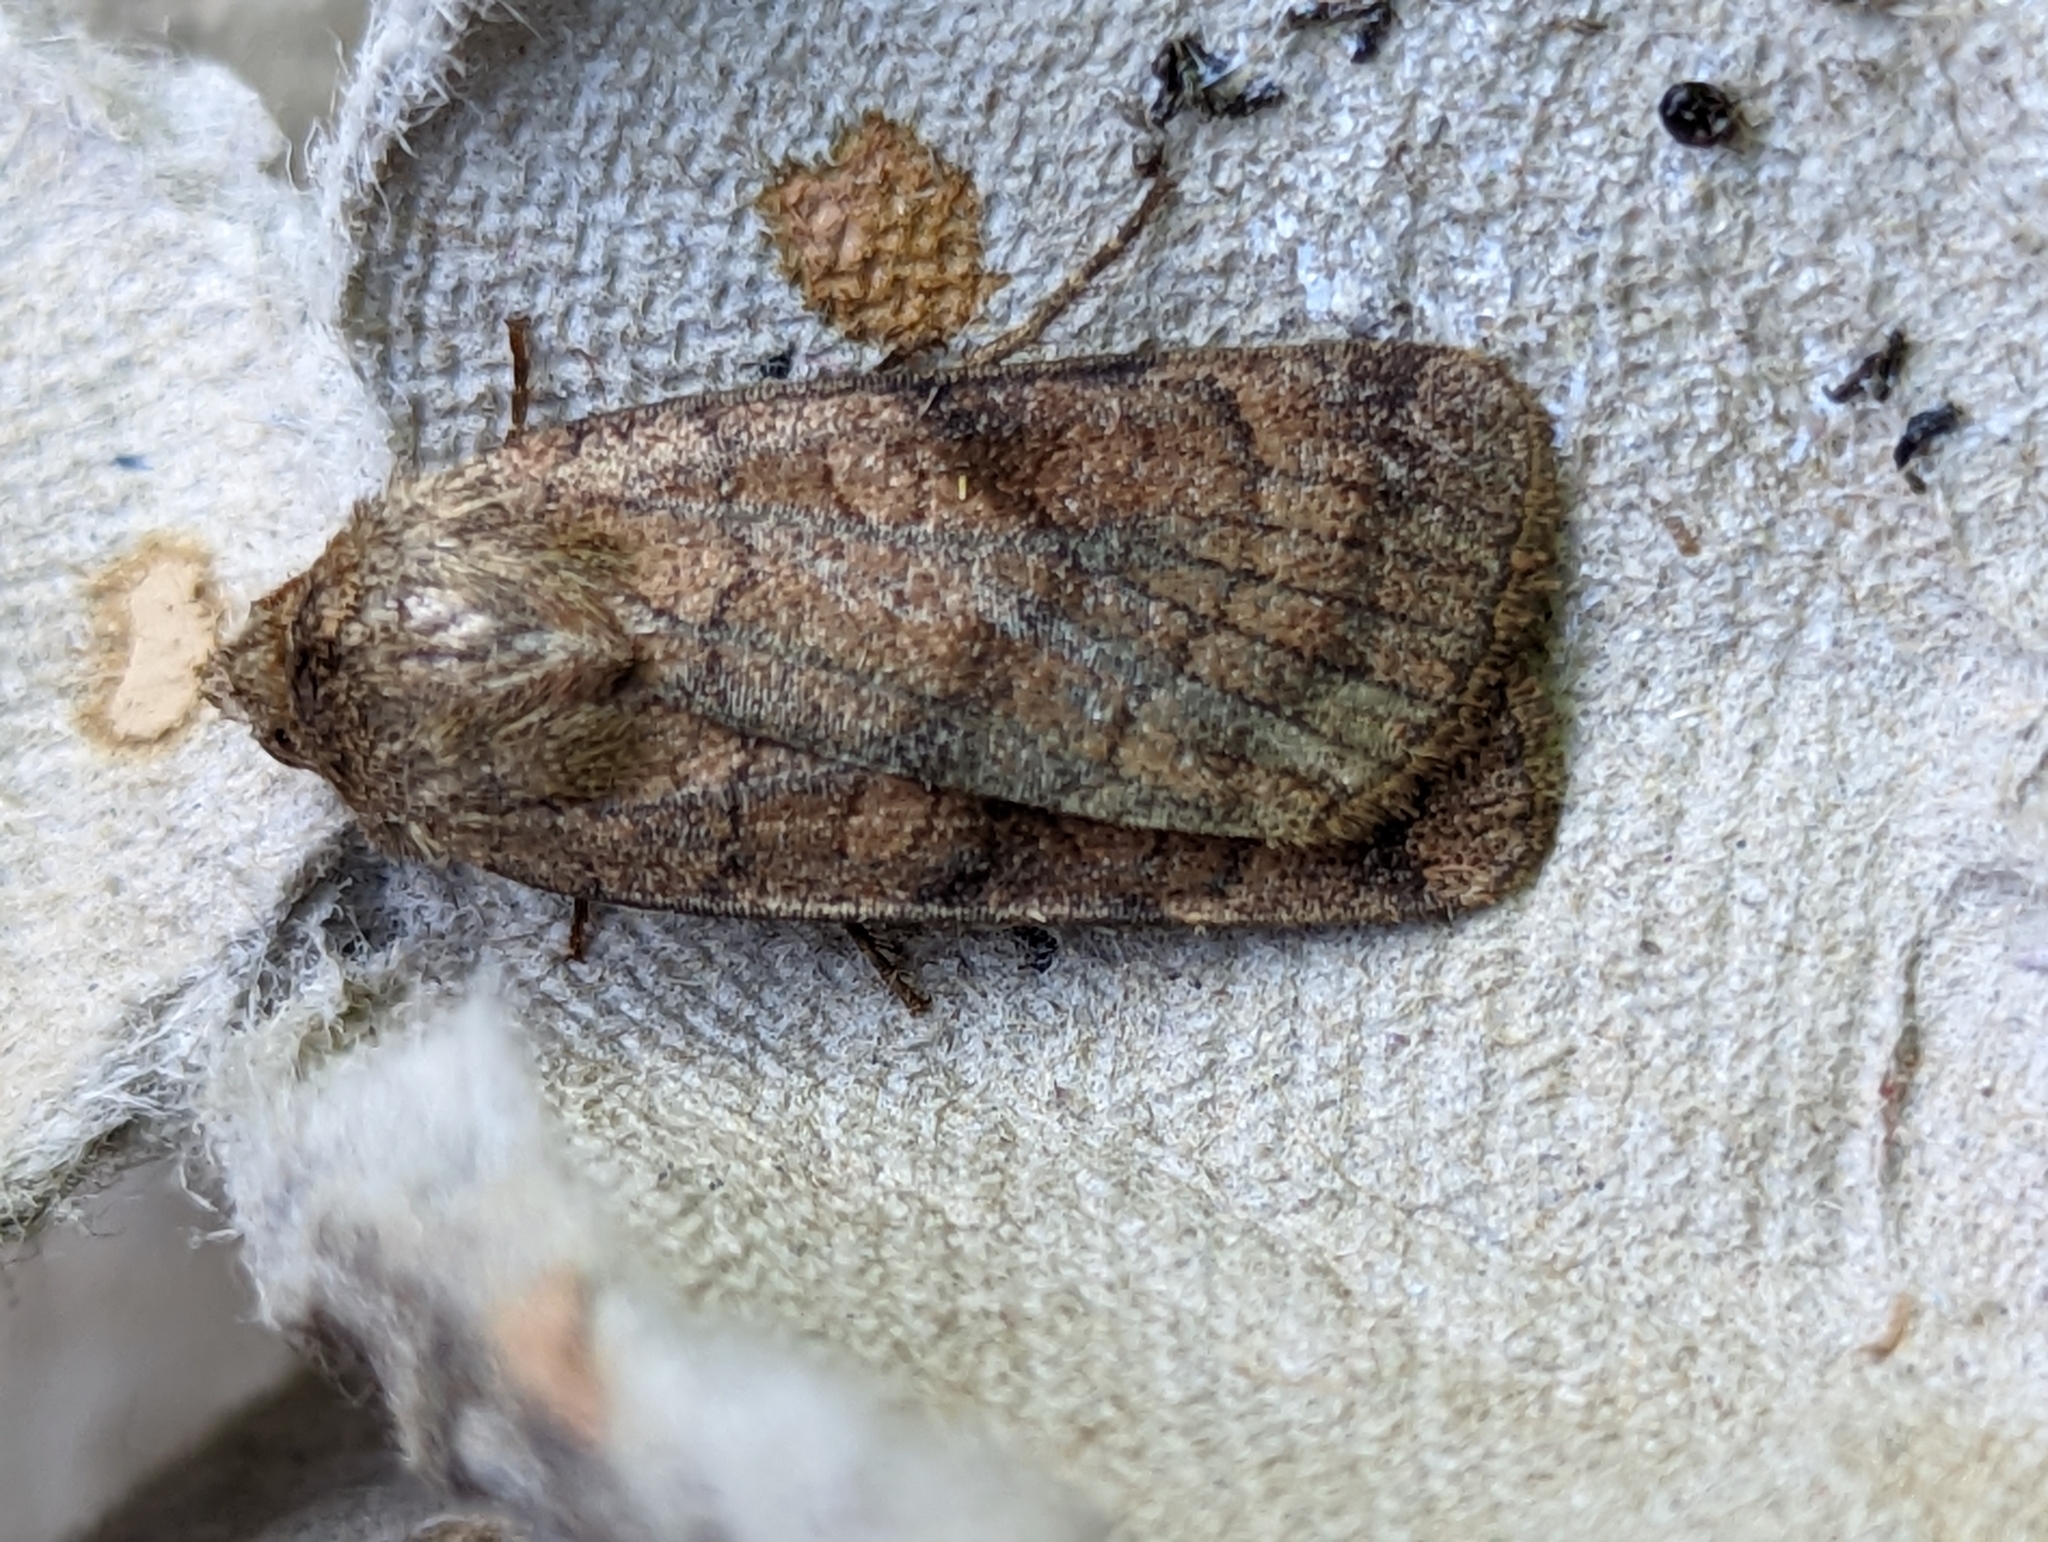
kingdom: Animalia
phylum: Arthropoda
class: Insecta
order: Lepidoptera
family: Noctuidae
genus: Xestia
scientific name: Xestia sexstrigata
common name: Six-striped rustic
